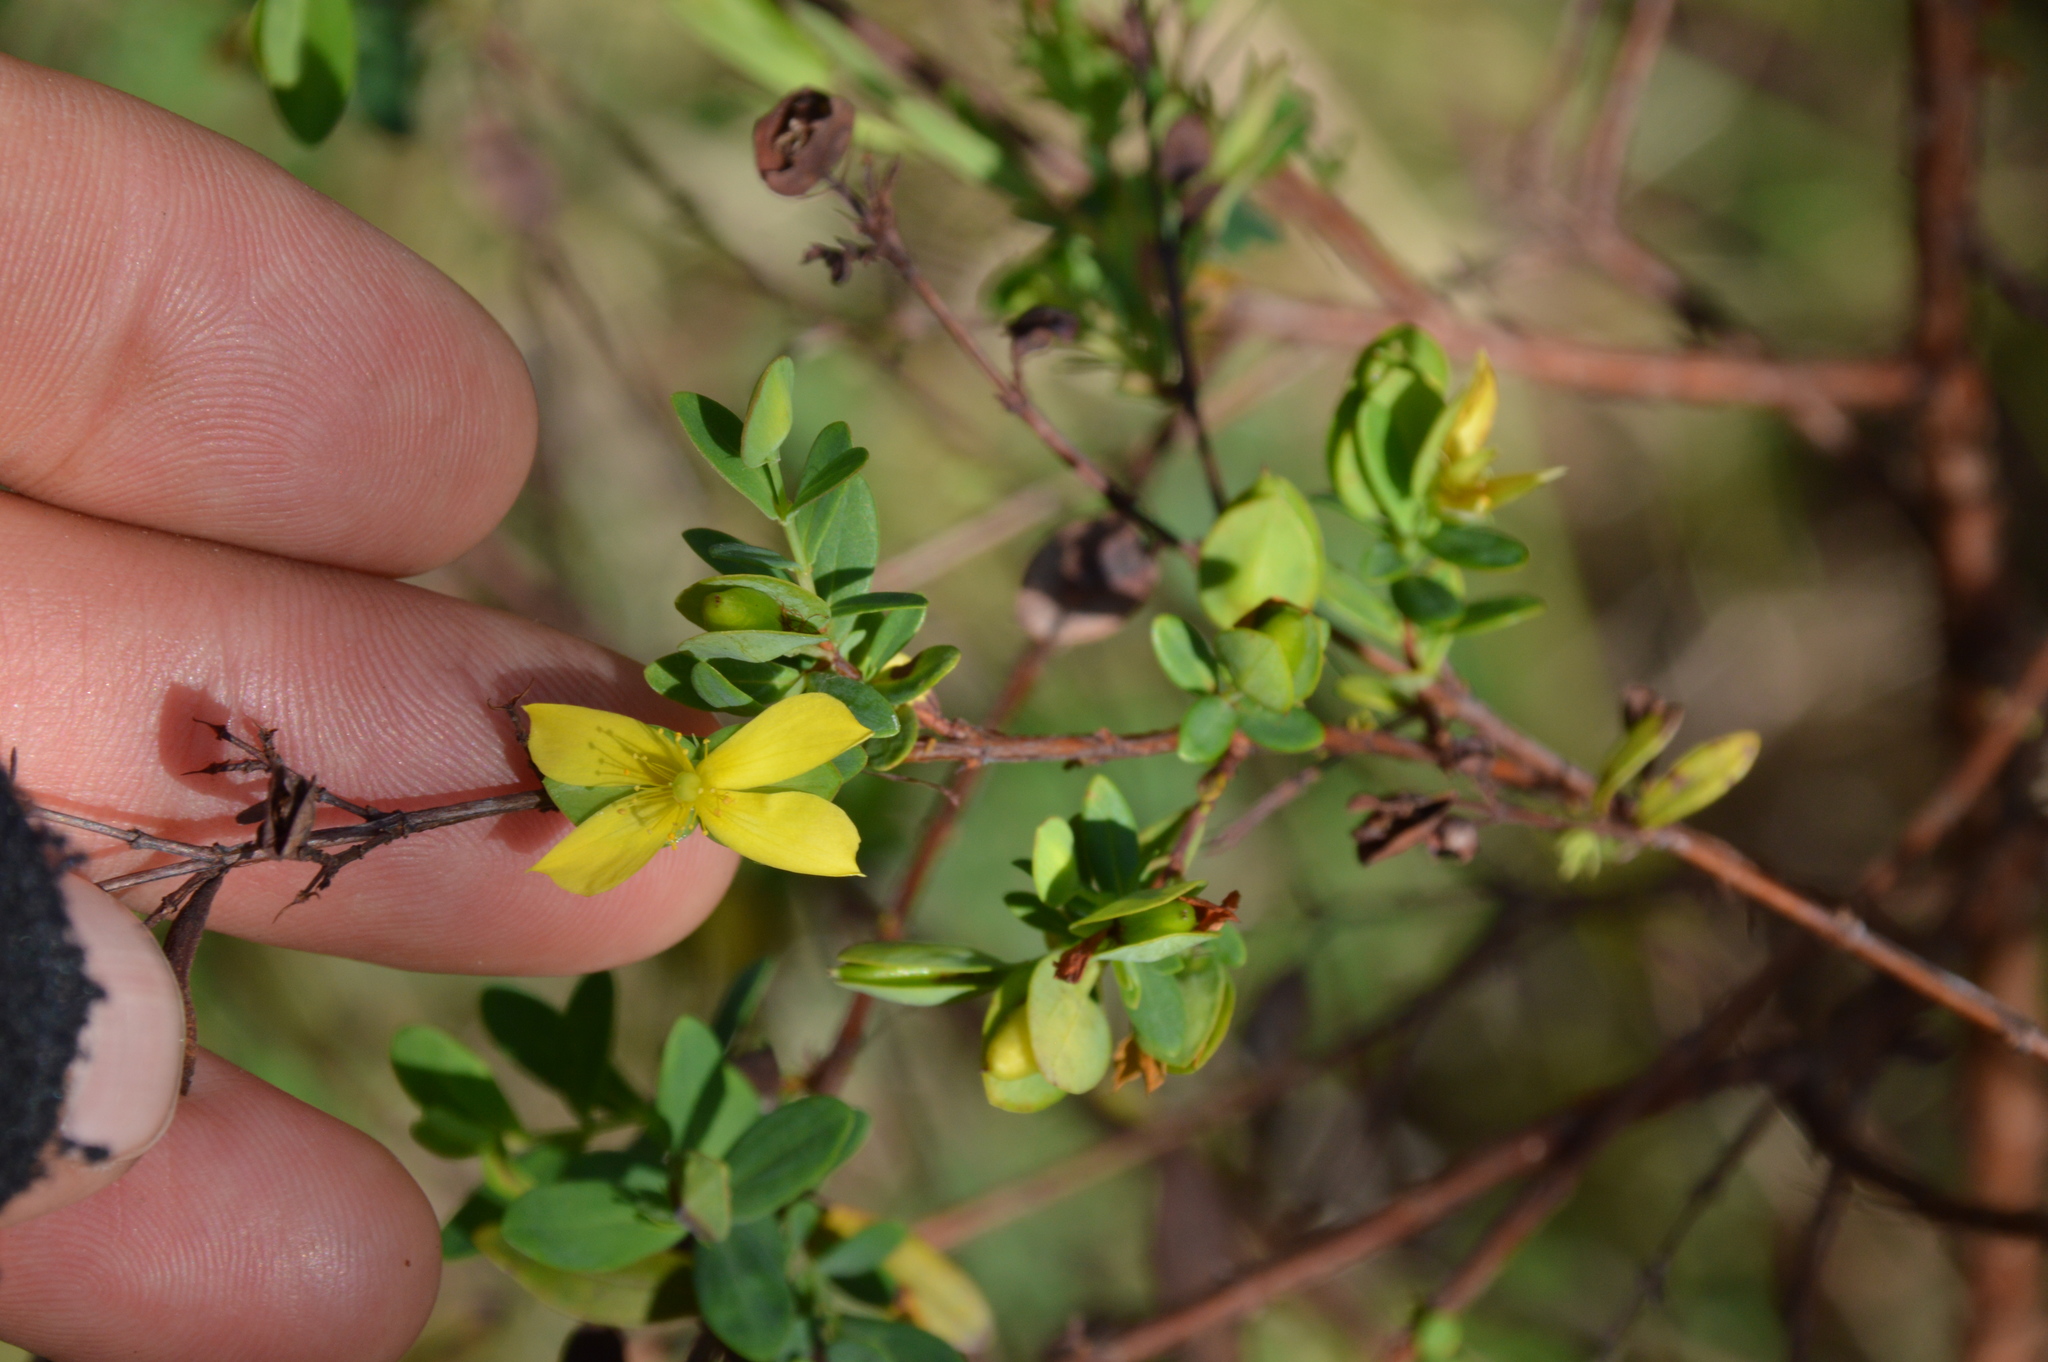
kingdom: Plantae
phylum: Tracheophyta
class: Magnoliopsida
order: Malpighiales
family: Hypericaceae
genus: Hypericum
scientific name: Hypericum hypericoides
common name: St. andrew's cross
